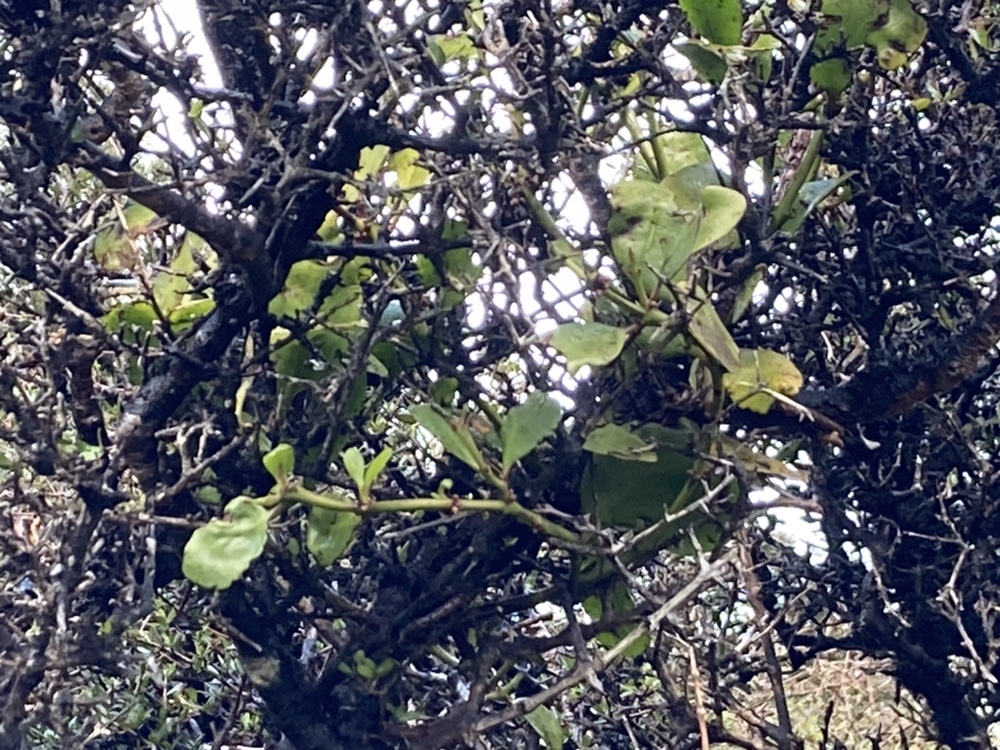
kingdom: Plantae
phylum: Tracheophyta
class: Magnoliopsida
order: Santalales
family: Loranthaceae
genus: Ileostylus
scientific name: Ileostylus micranthus
